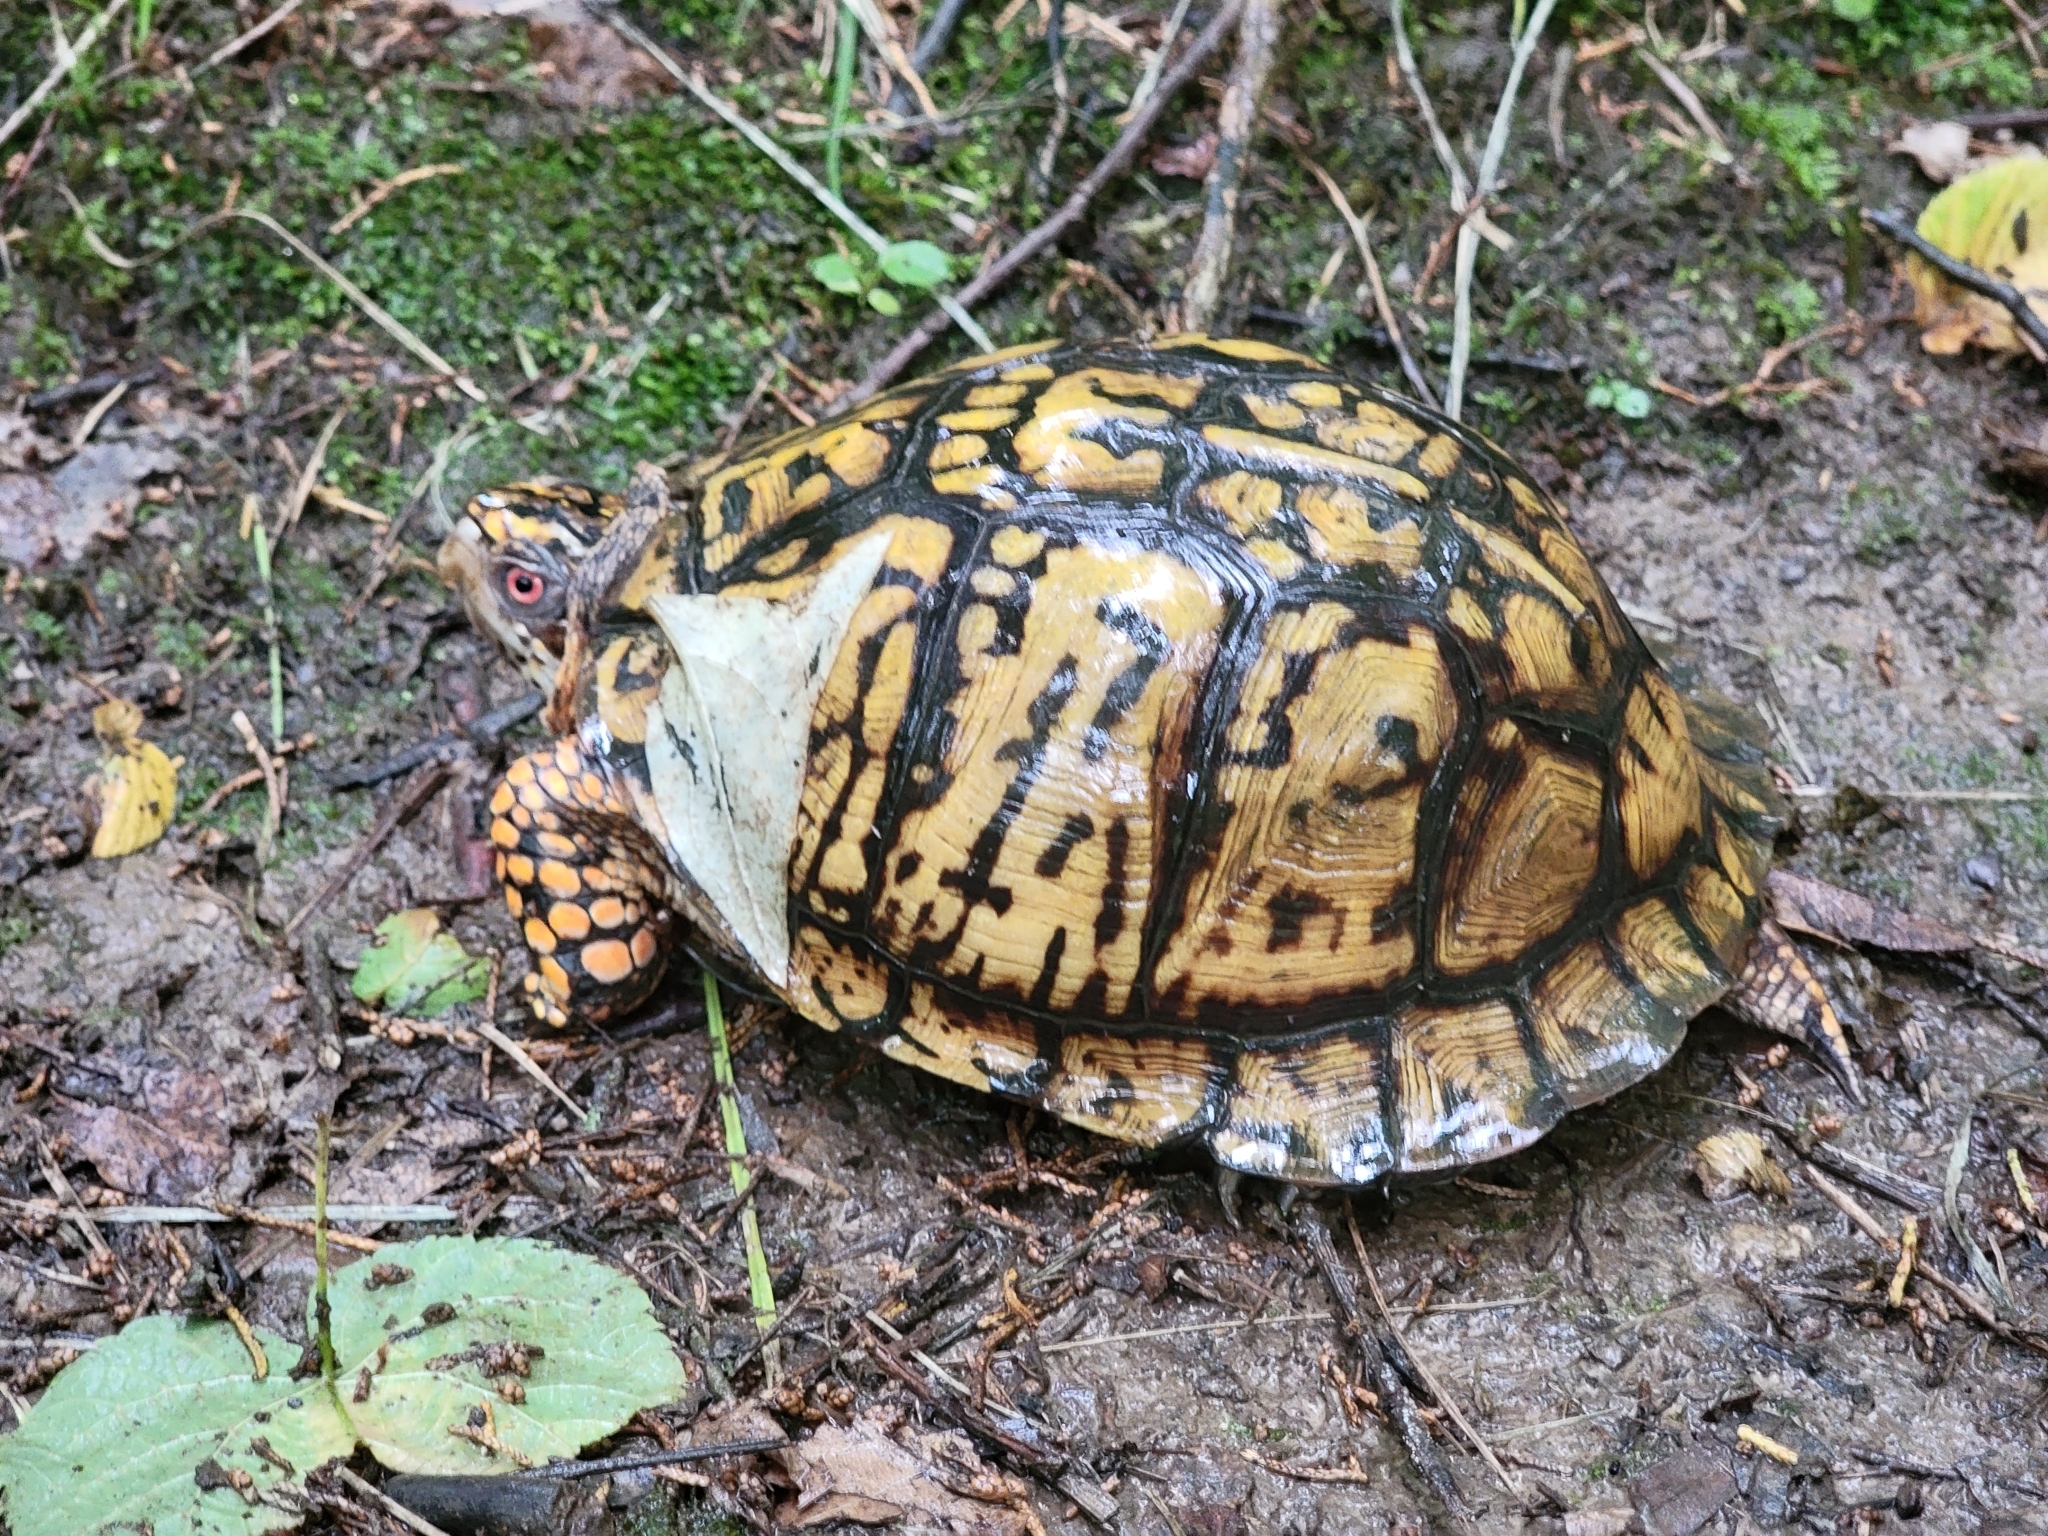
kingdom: Animalia
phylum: Chordata
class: Testudines
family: Emydidae
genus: Terrapene
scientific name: Terrapene carolina
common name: Common box turtle
